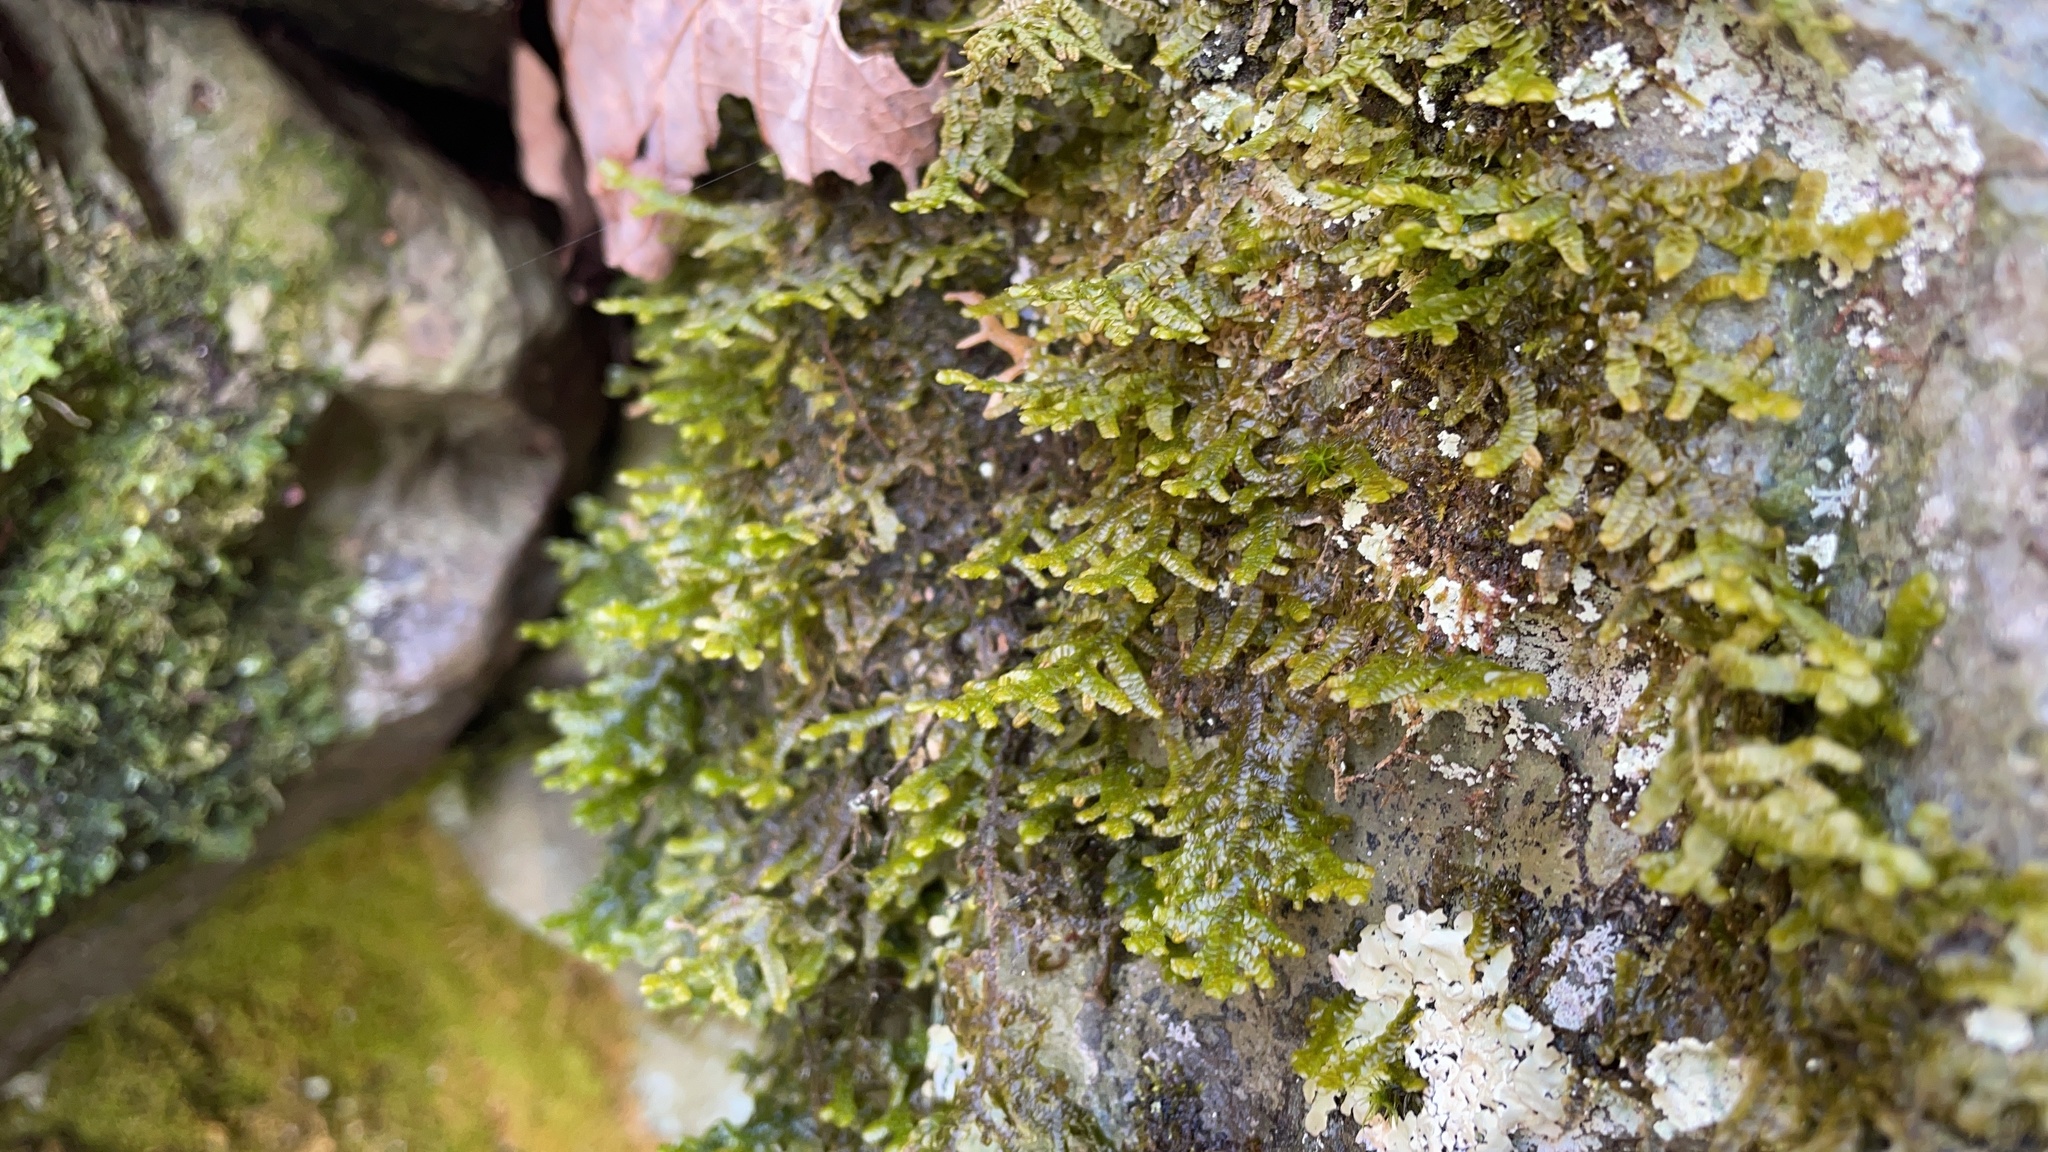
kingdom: Plantae
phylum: Marchantiophyta
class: Jungermanniopsida
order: Porellales
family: Porellaceae
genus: Porella
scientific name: Porella platyphylla
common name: Wall scalewort
